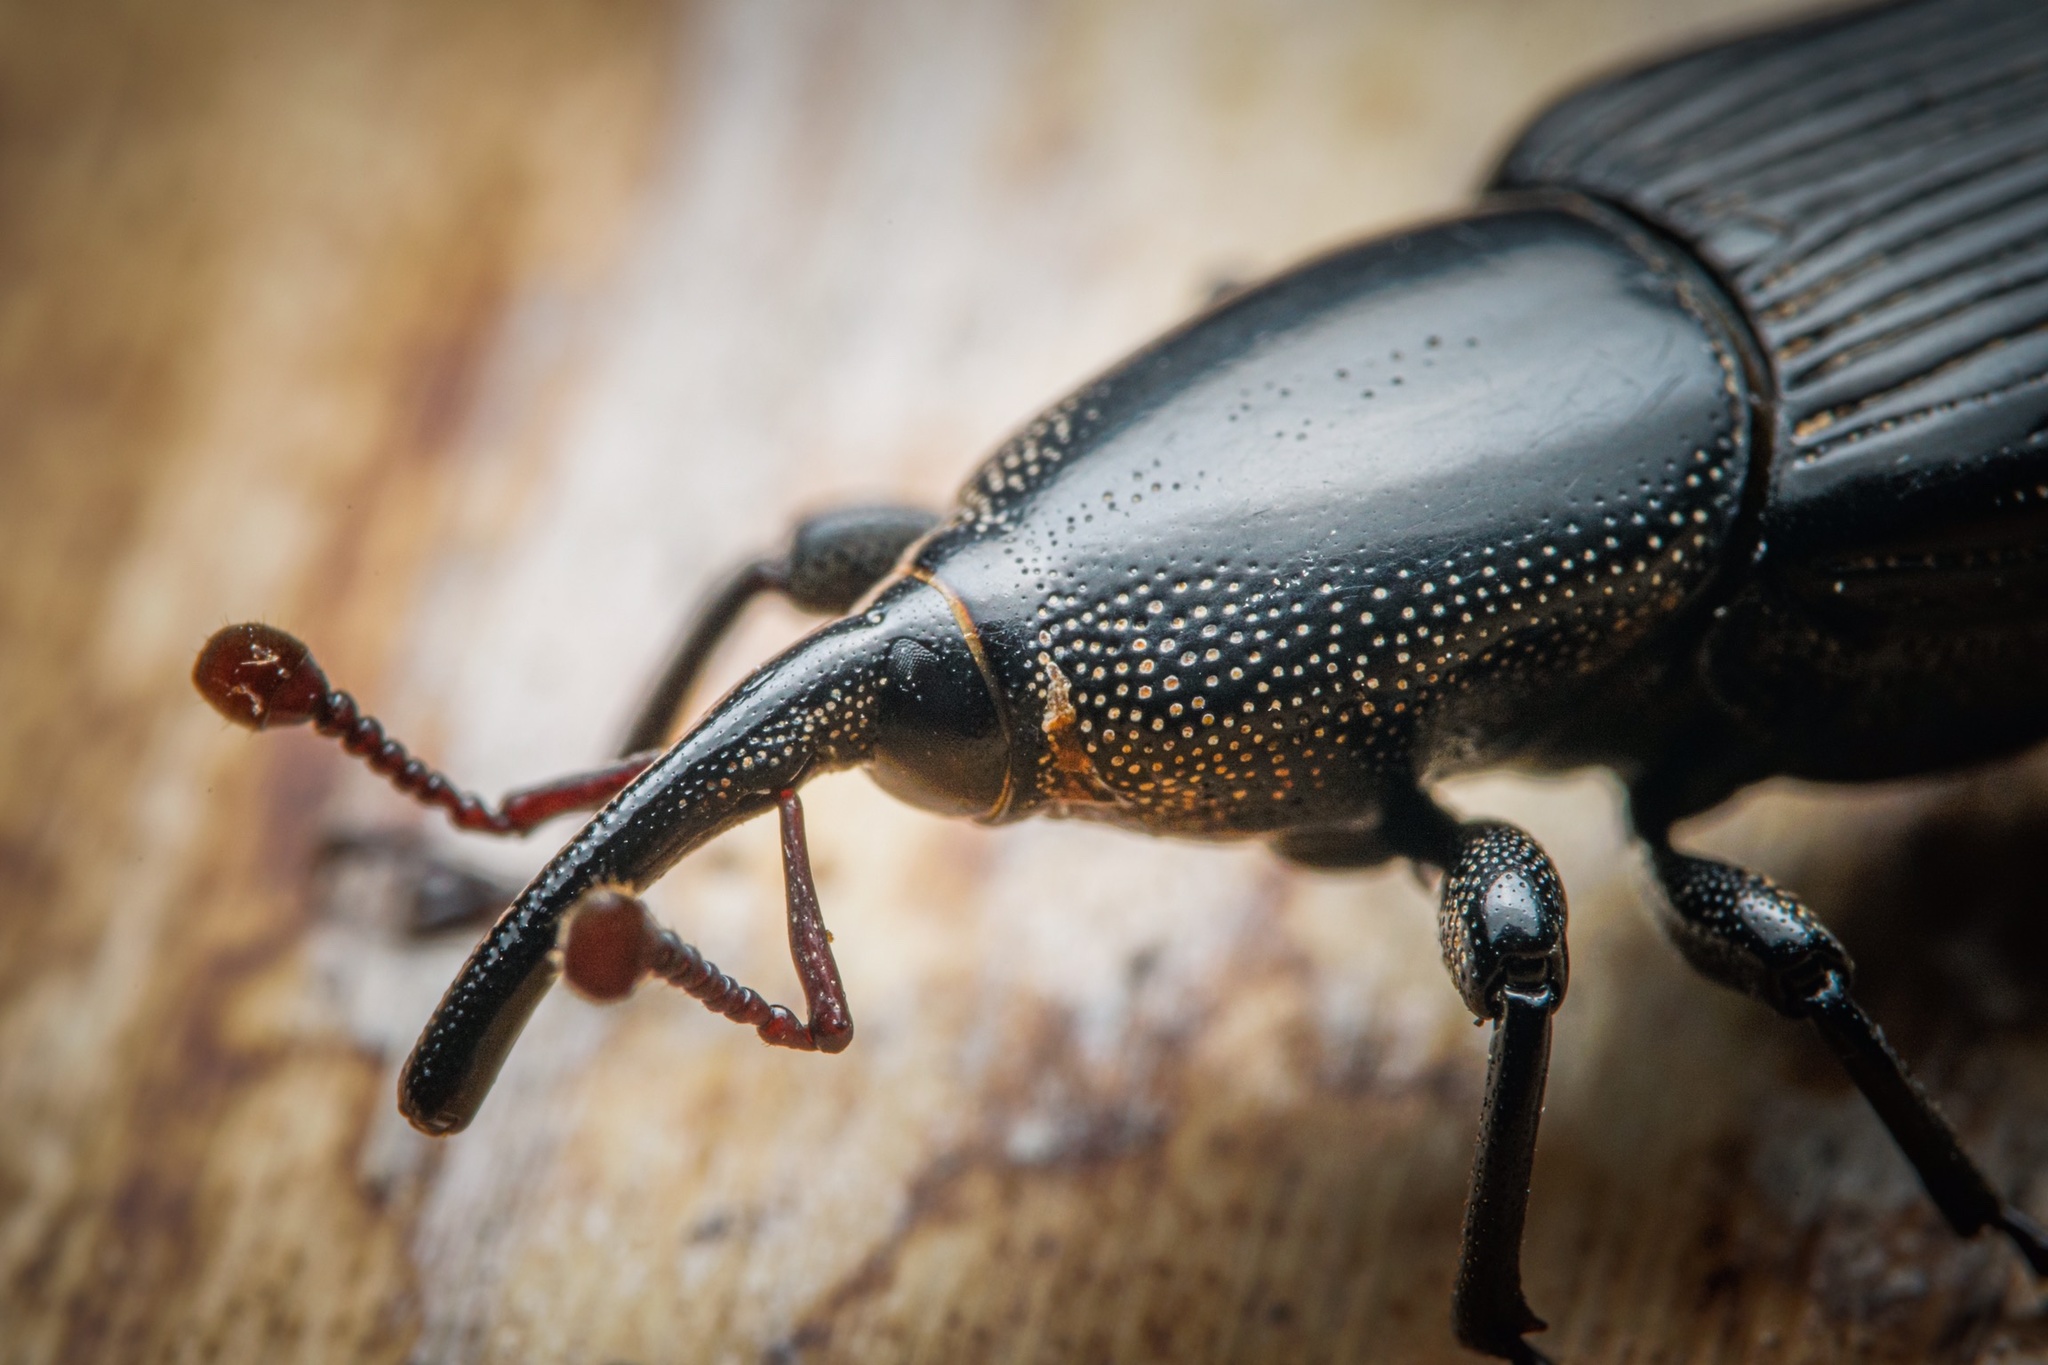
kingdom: Animalia
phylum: Arthropoda
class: Insecta
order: Coleoptera
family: Dryophthoridae
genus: Odoiporus
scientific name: Odoiporus longicollis
